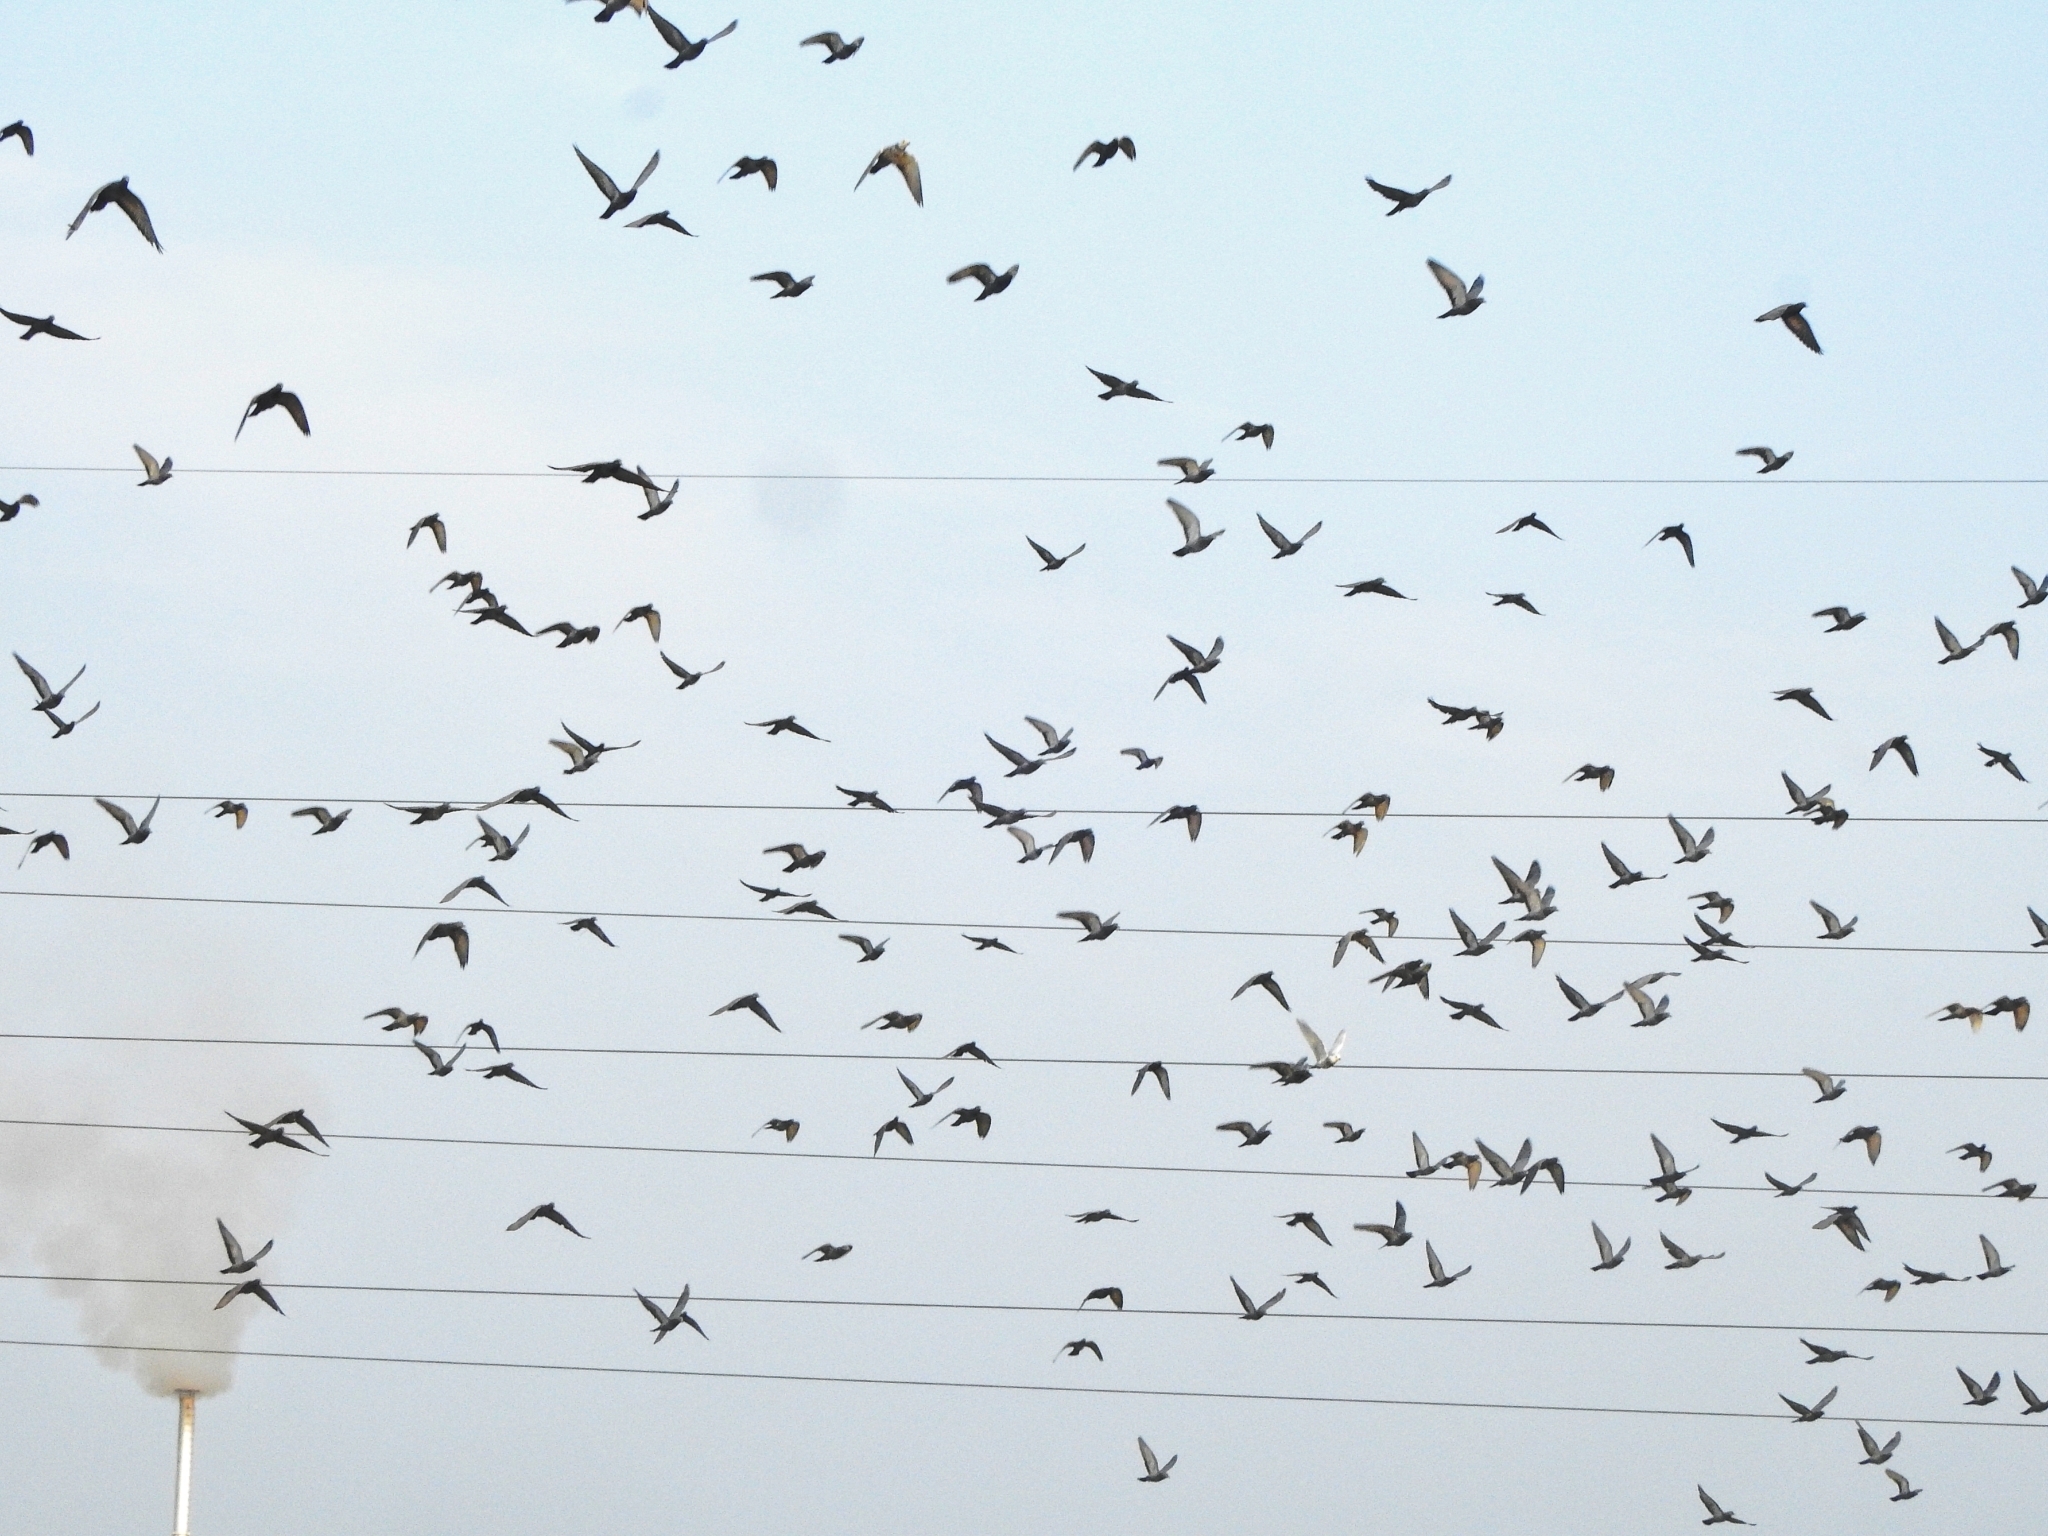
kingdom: Animalia
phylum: Chordata
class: Aves
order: Columbiformes
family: Columbidae
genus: Columba
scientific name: Columba livia
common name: Rock pigeon
